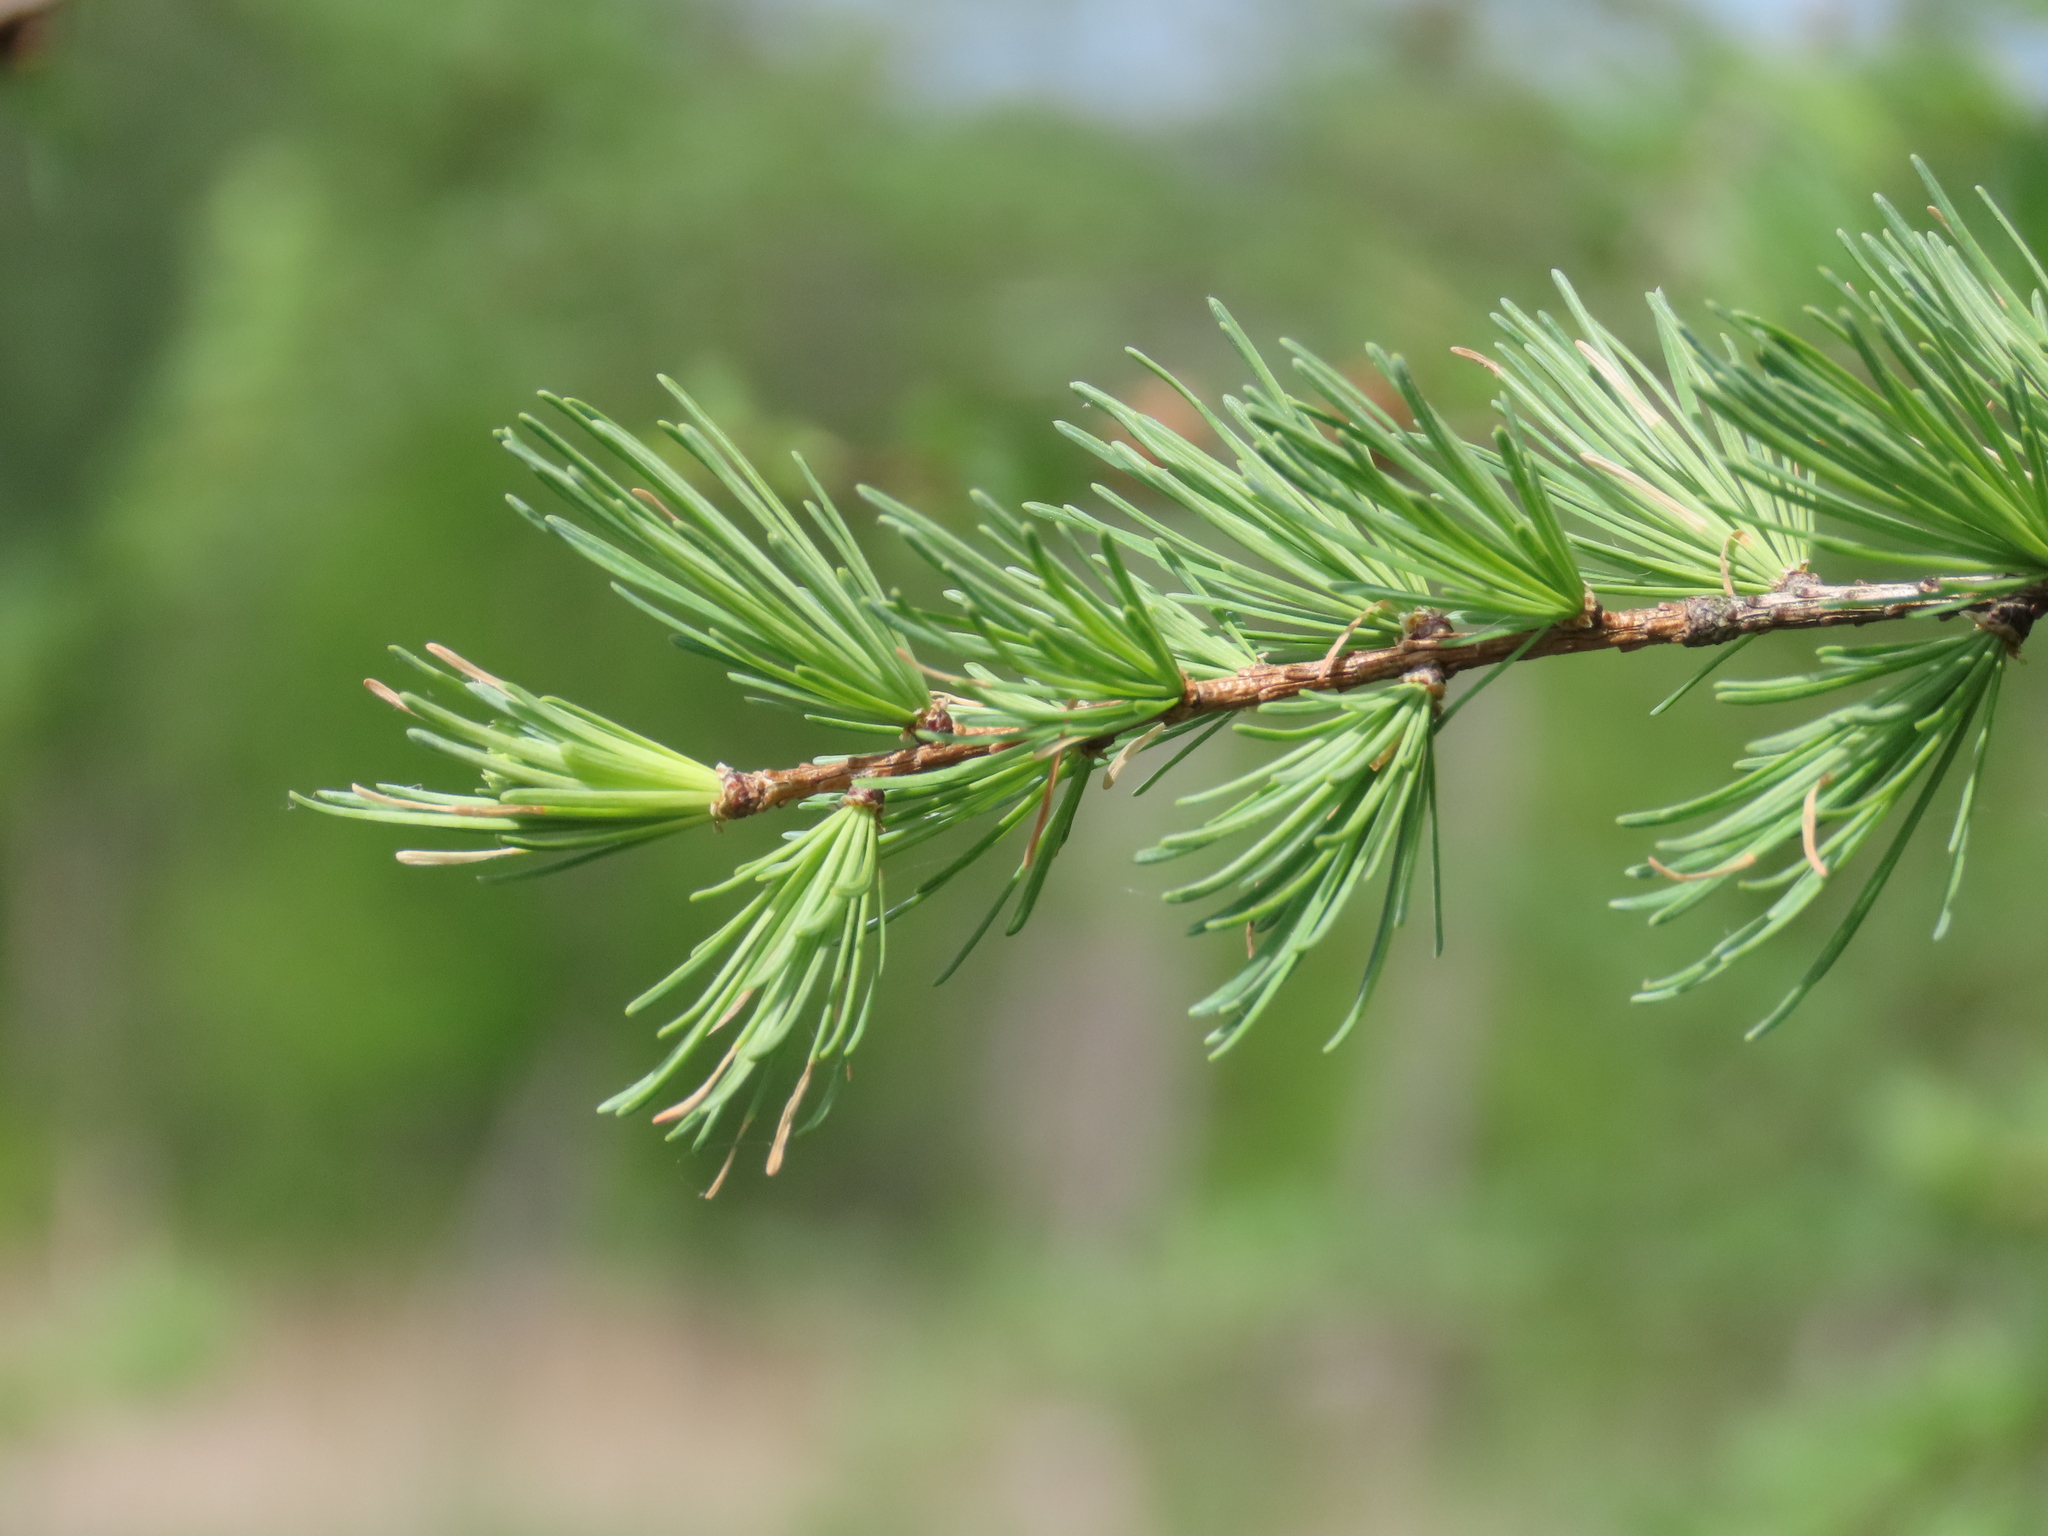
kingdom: Plantae
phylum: Tracheophyta
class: Pinopsida
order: Pinales
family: Pinaceae
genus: Larix
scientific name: Larix laricina
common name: American larch
